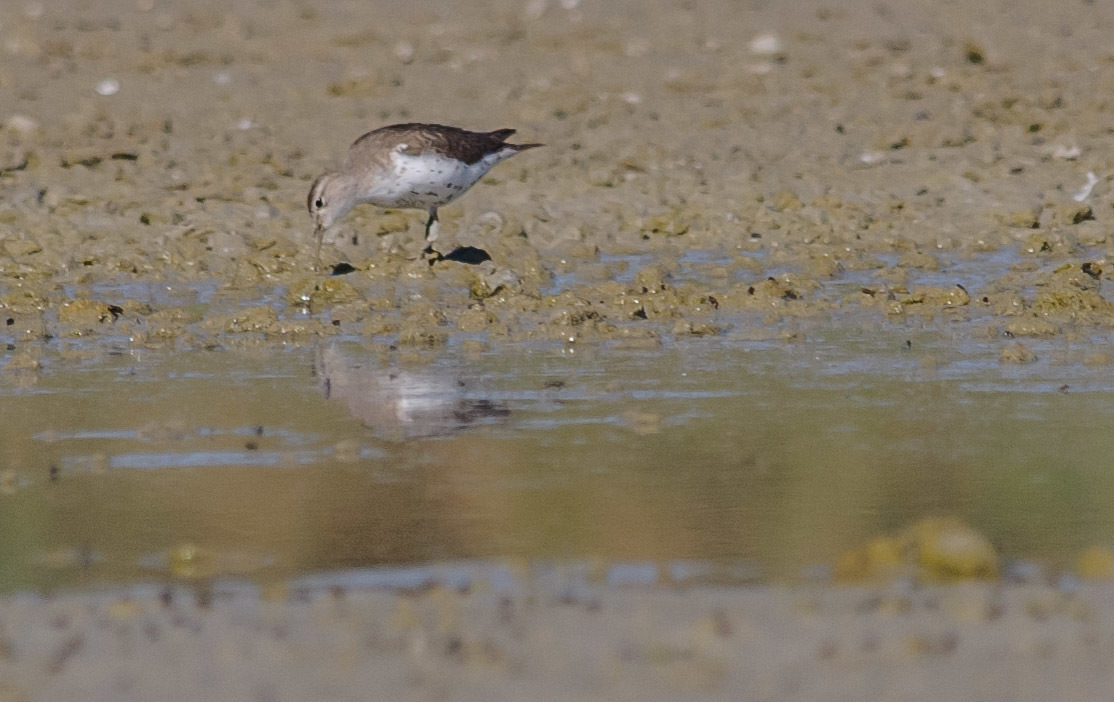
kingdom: Animalia
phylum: Chordata
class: Aves
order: Charadriiformes
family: Scolopacidae
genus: Actitis
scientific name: Actitis macularius
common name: Spotted sandpiper
